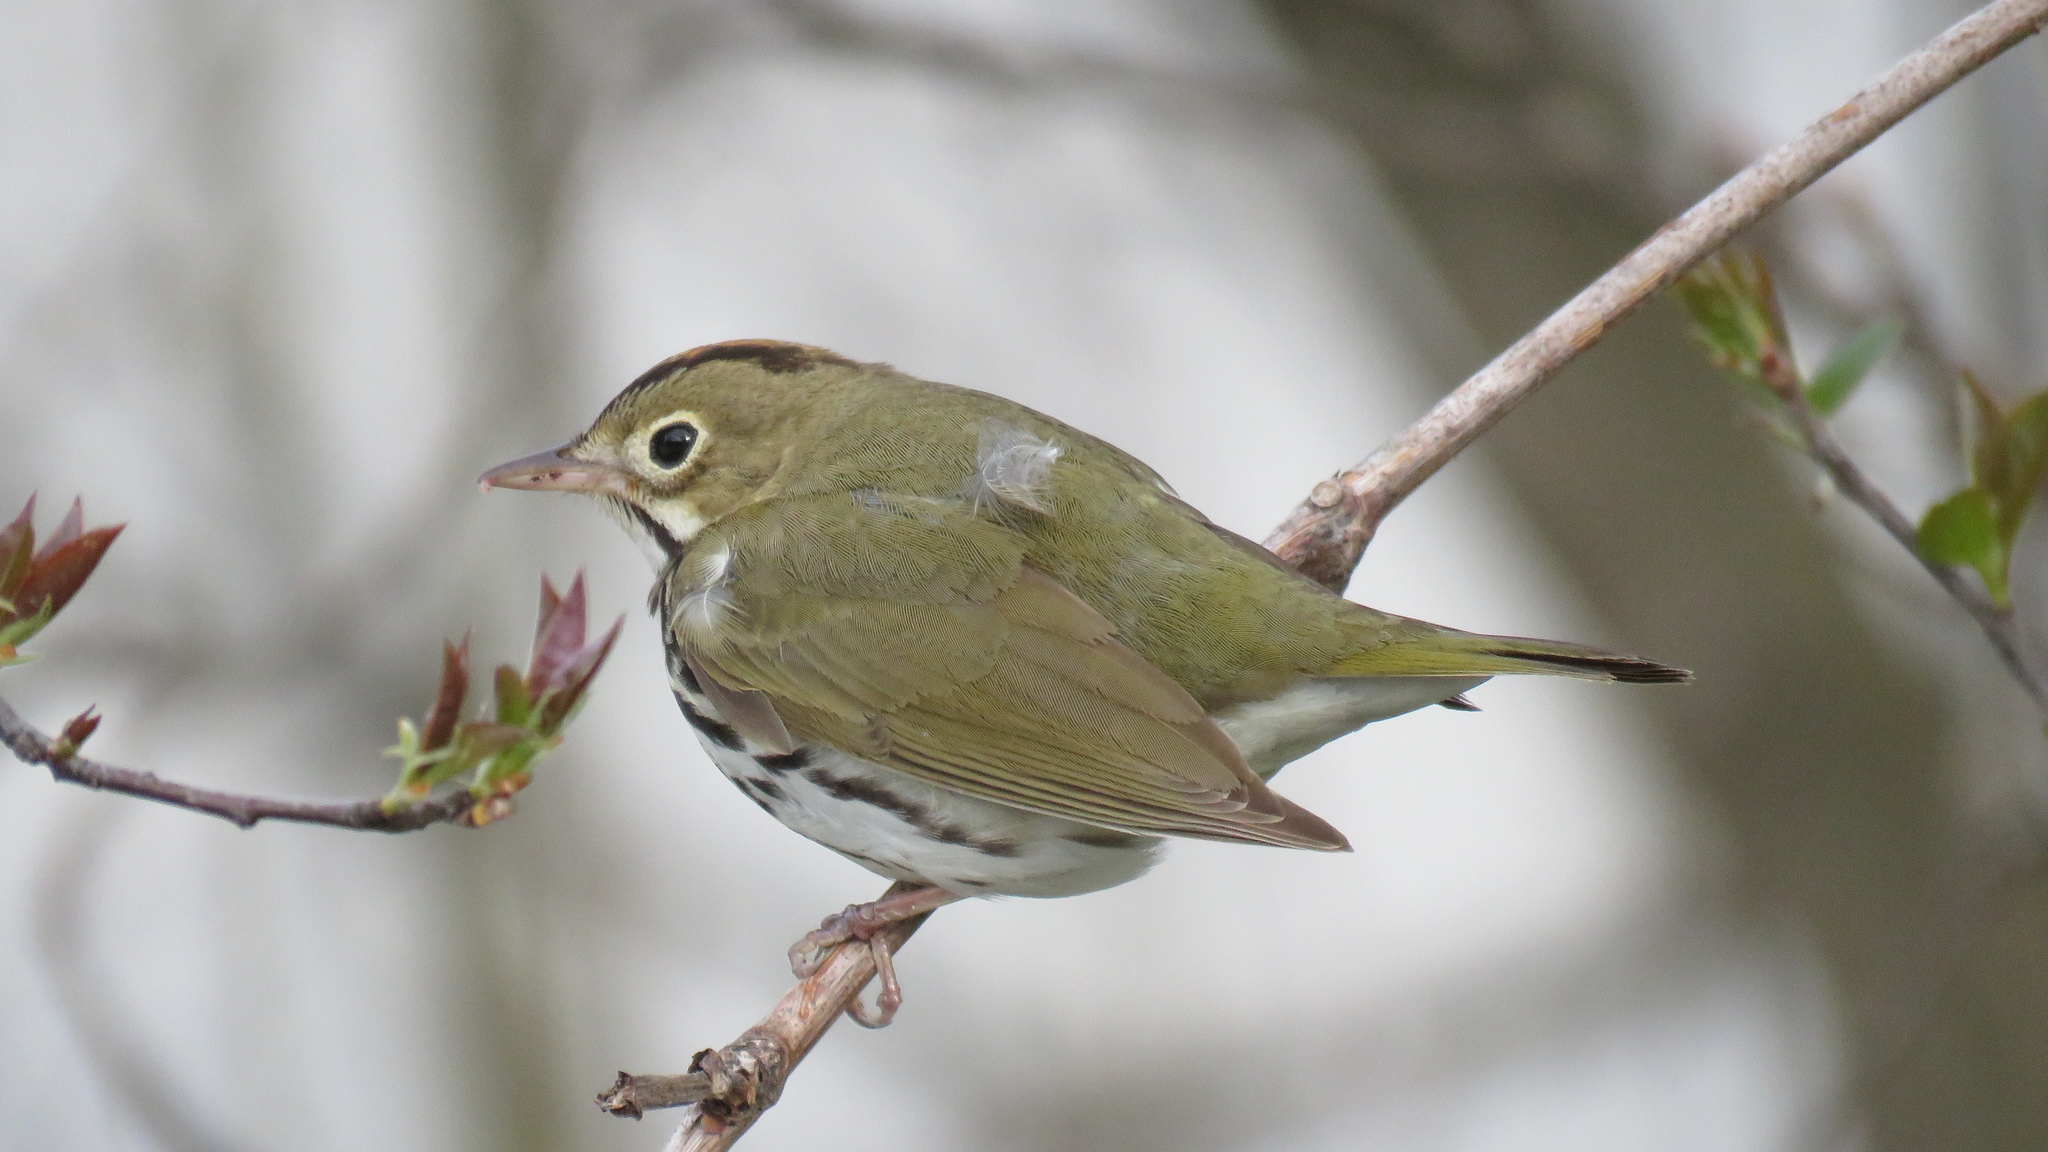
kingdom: Animalia
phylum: Chordata
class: Aves
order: Passeriformes
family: Parulidae
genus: Seiurus
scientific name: Seiurus aurocapilla
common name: Ovenbird
